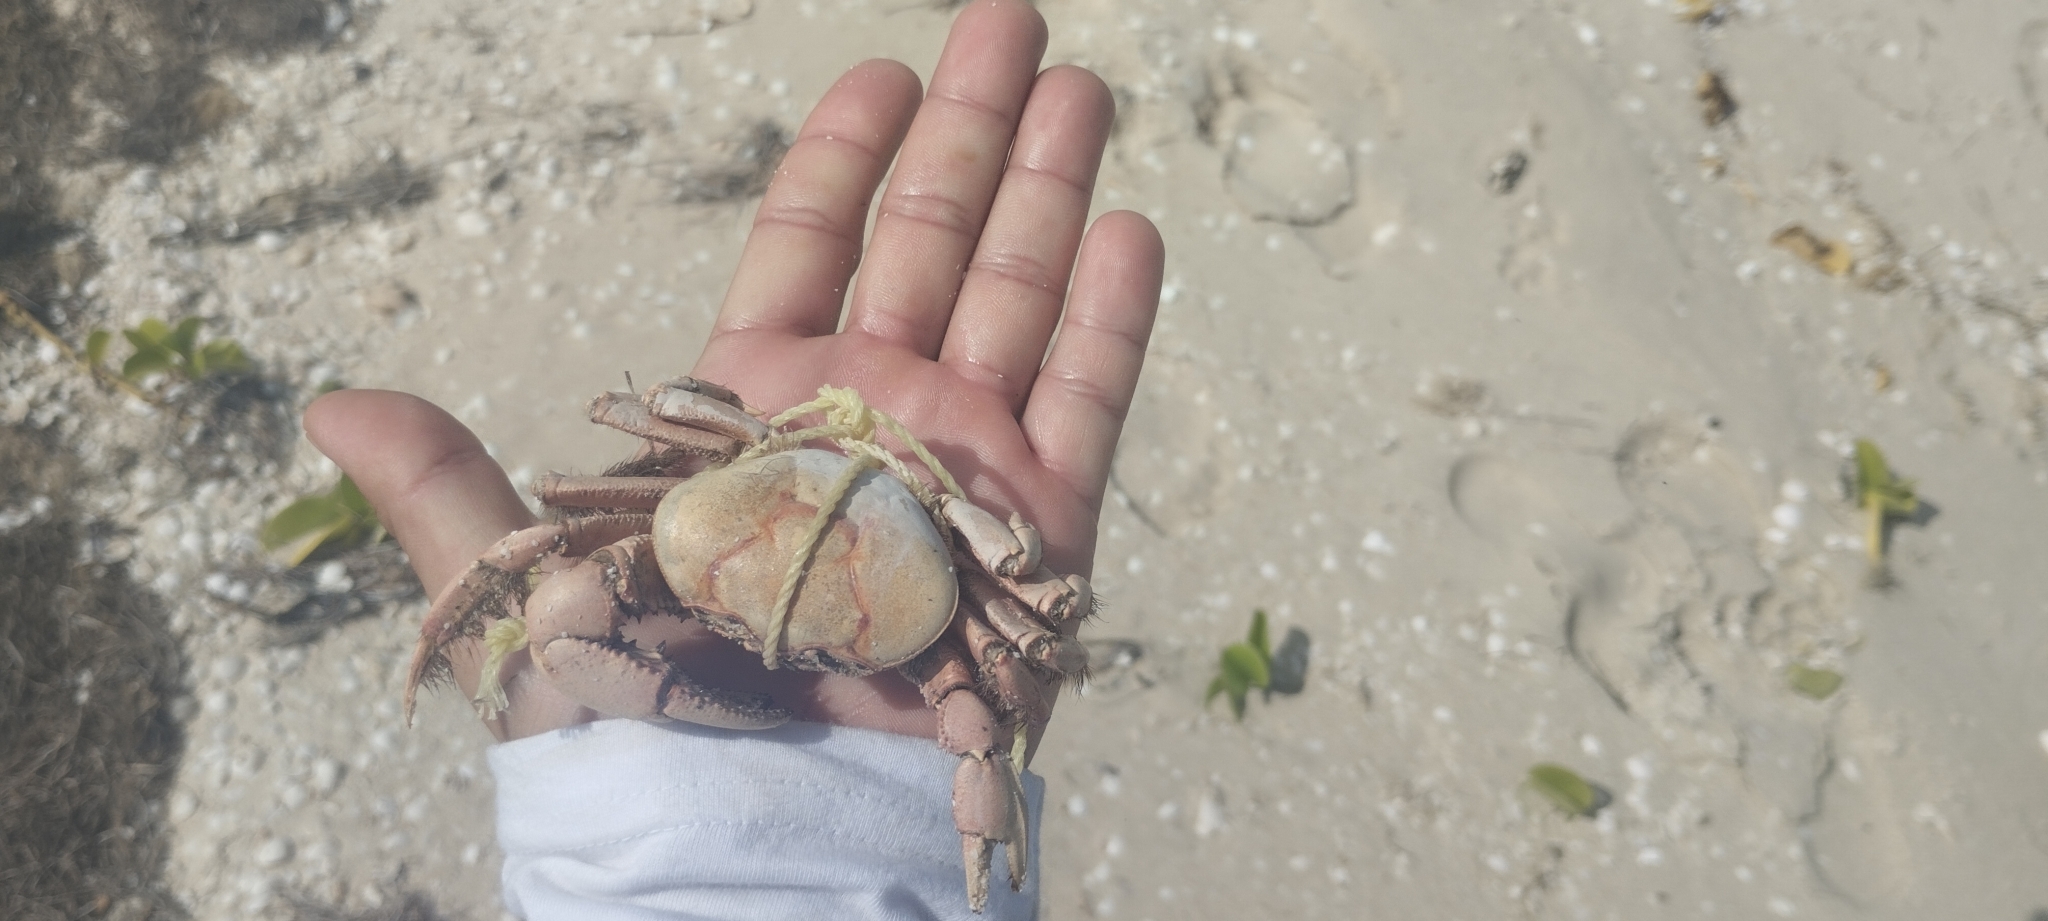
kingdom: Animalia
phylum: Arthropoda
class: Malacostraca
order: Decapoda
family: Ocypodidae
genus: Ucides
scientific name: Ucides cordatus
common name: Swamp ghost crab
